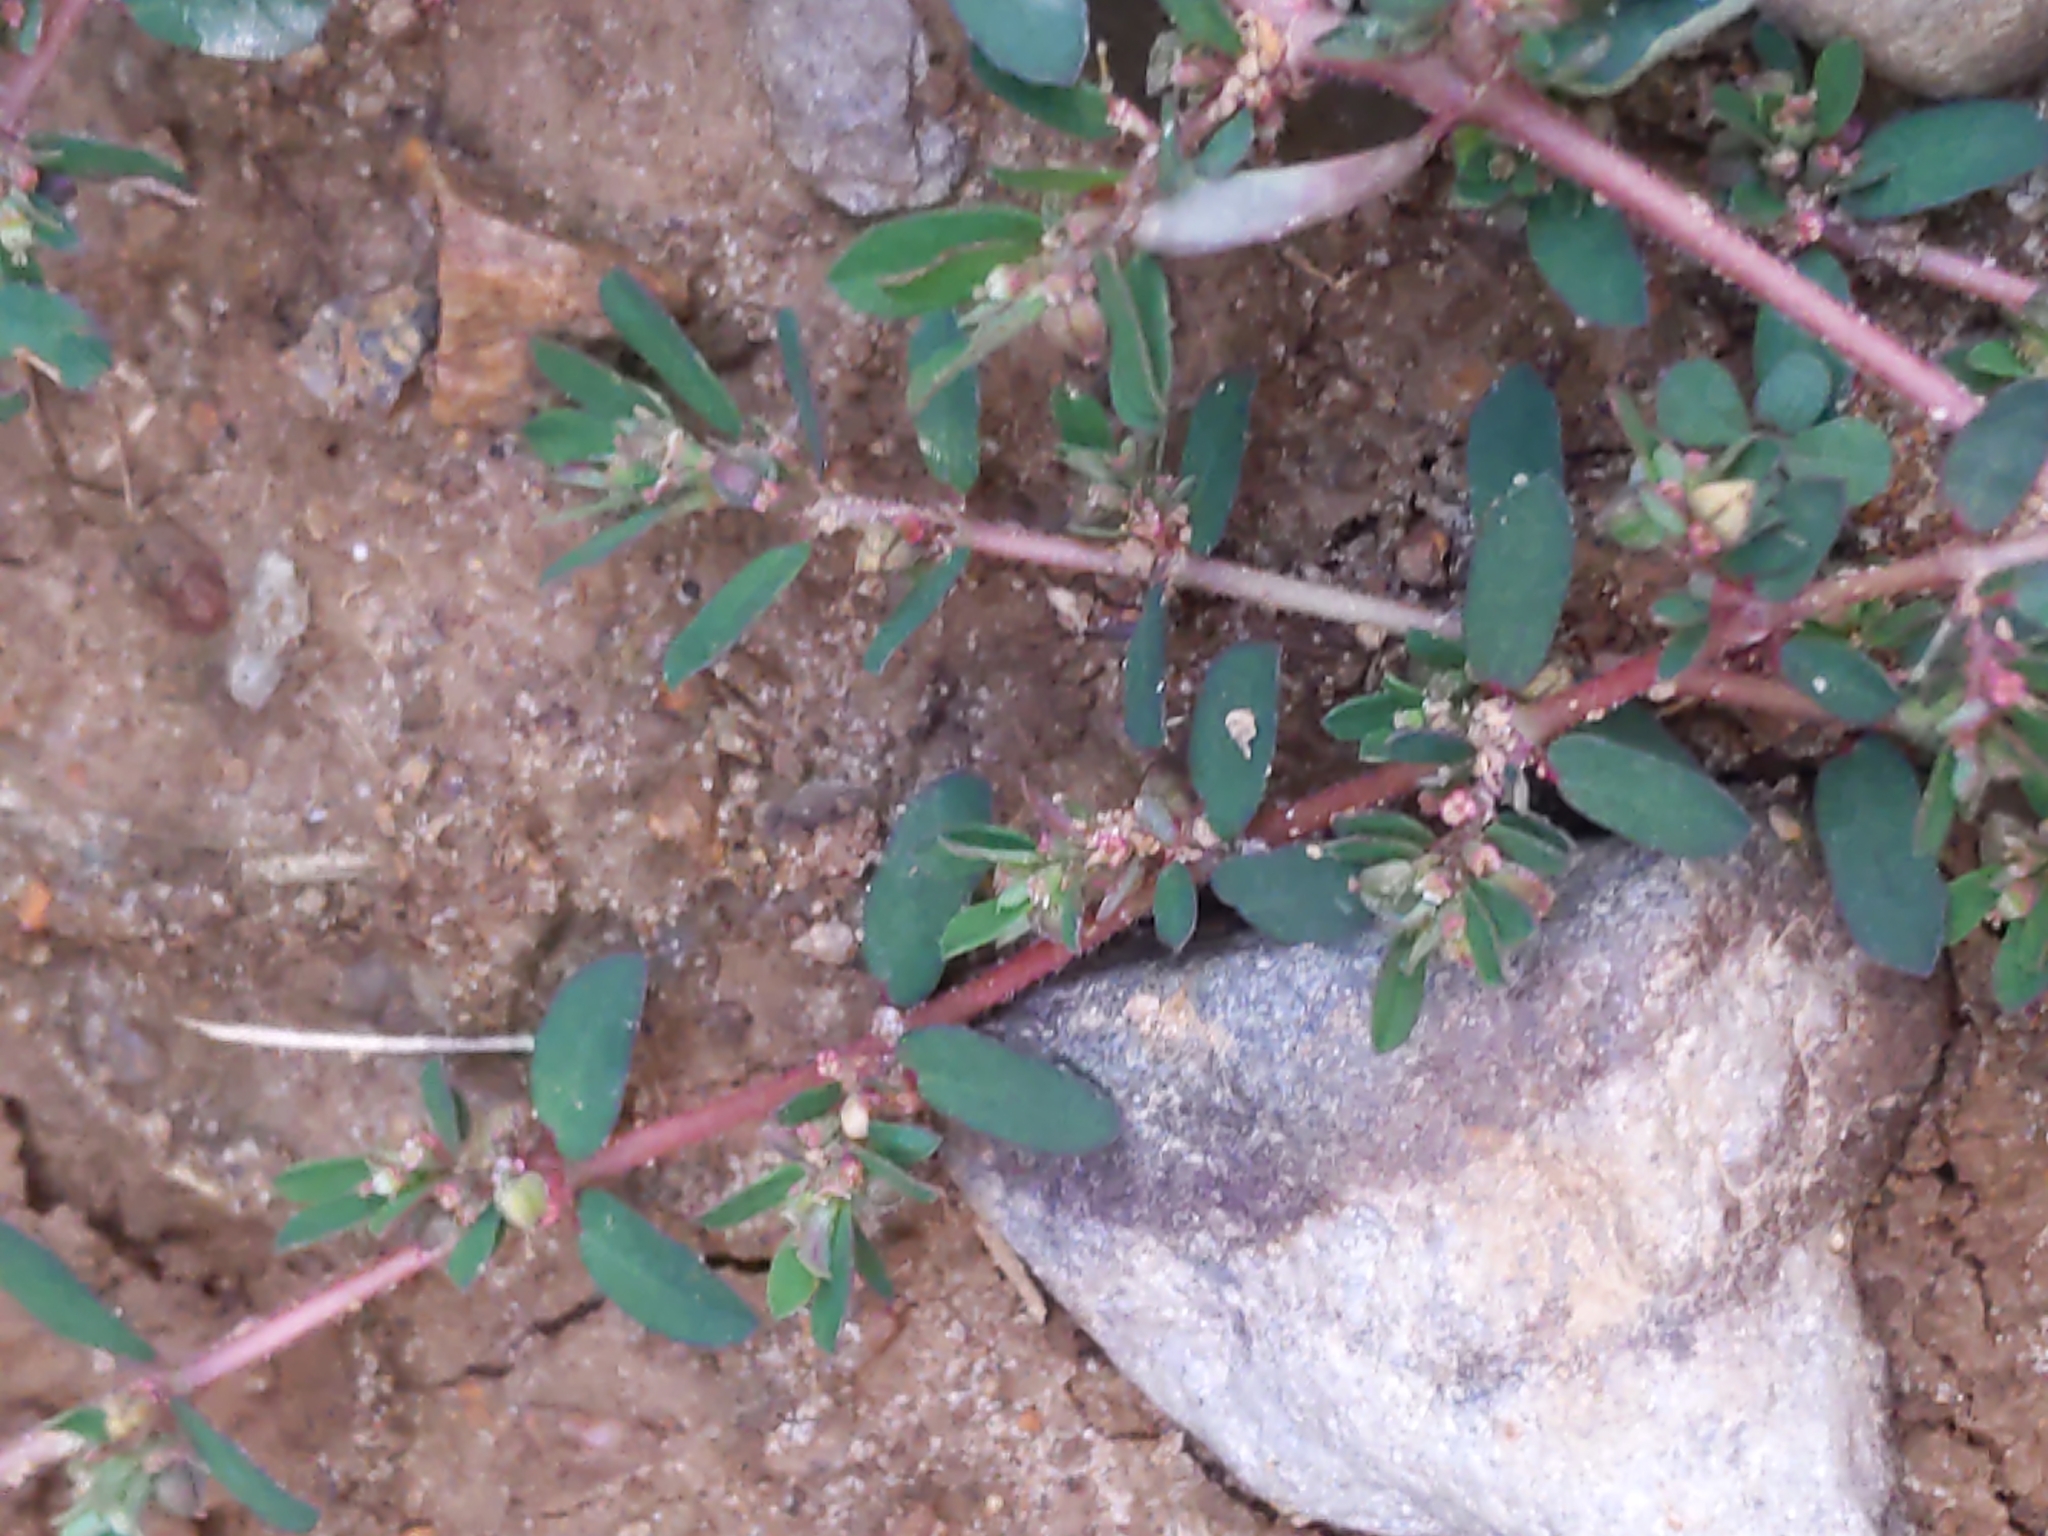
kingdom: Plantae
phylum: Tracheophyta
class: Magnoliopsida
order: Malpighiales
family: Euphorbiaceae
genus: Euphorbia
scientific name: Euphorbia maculata
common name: Spotted spurge
